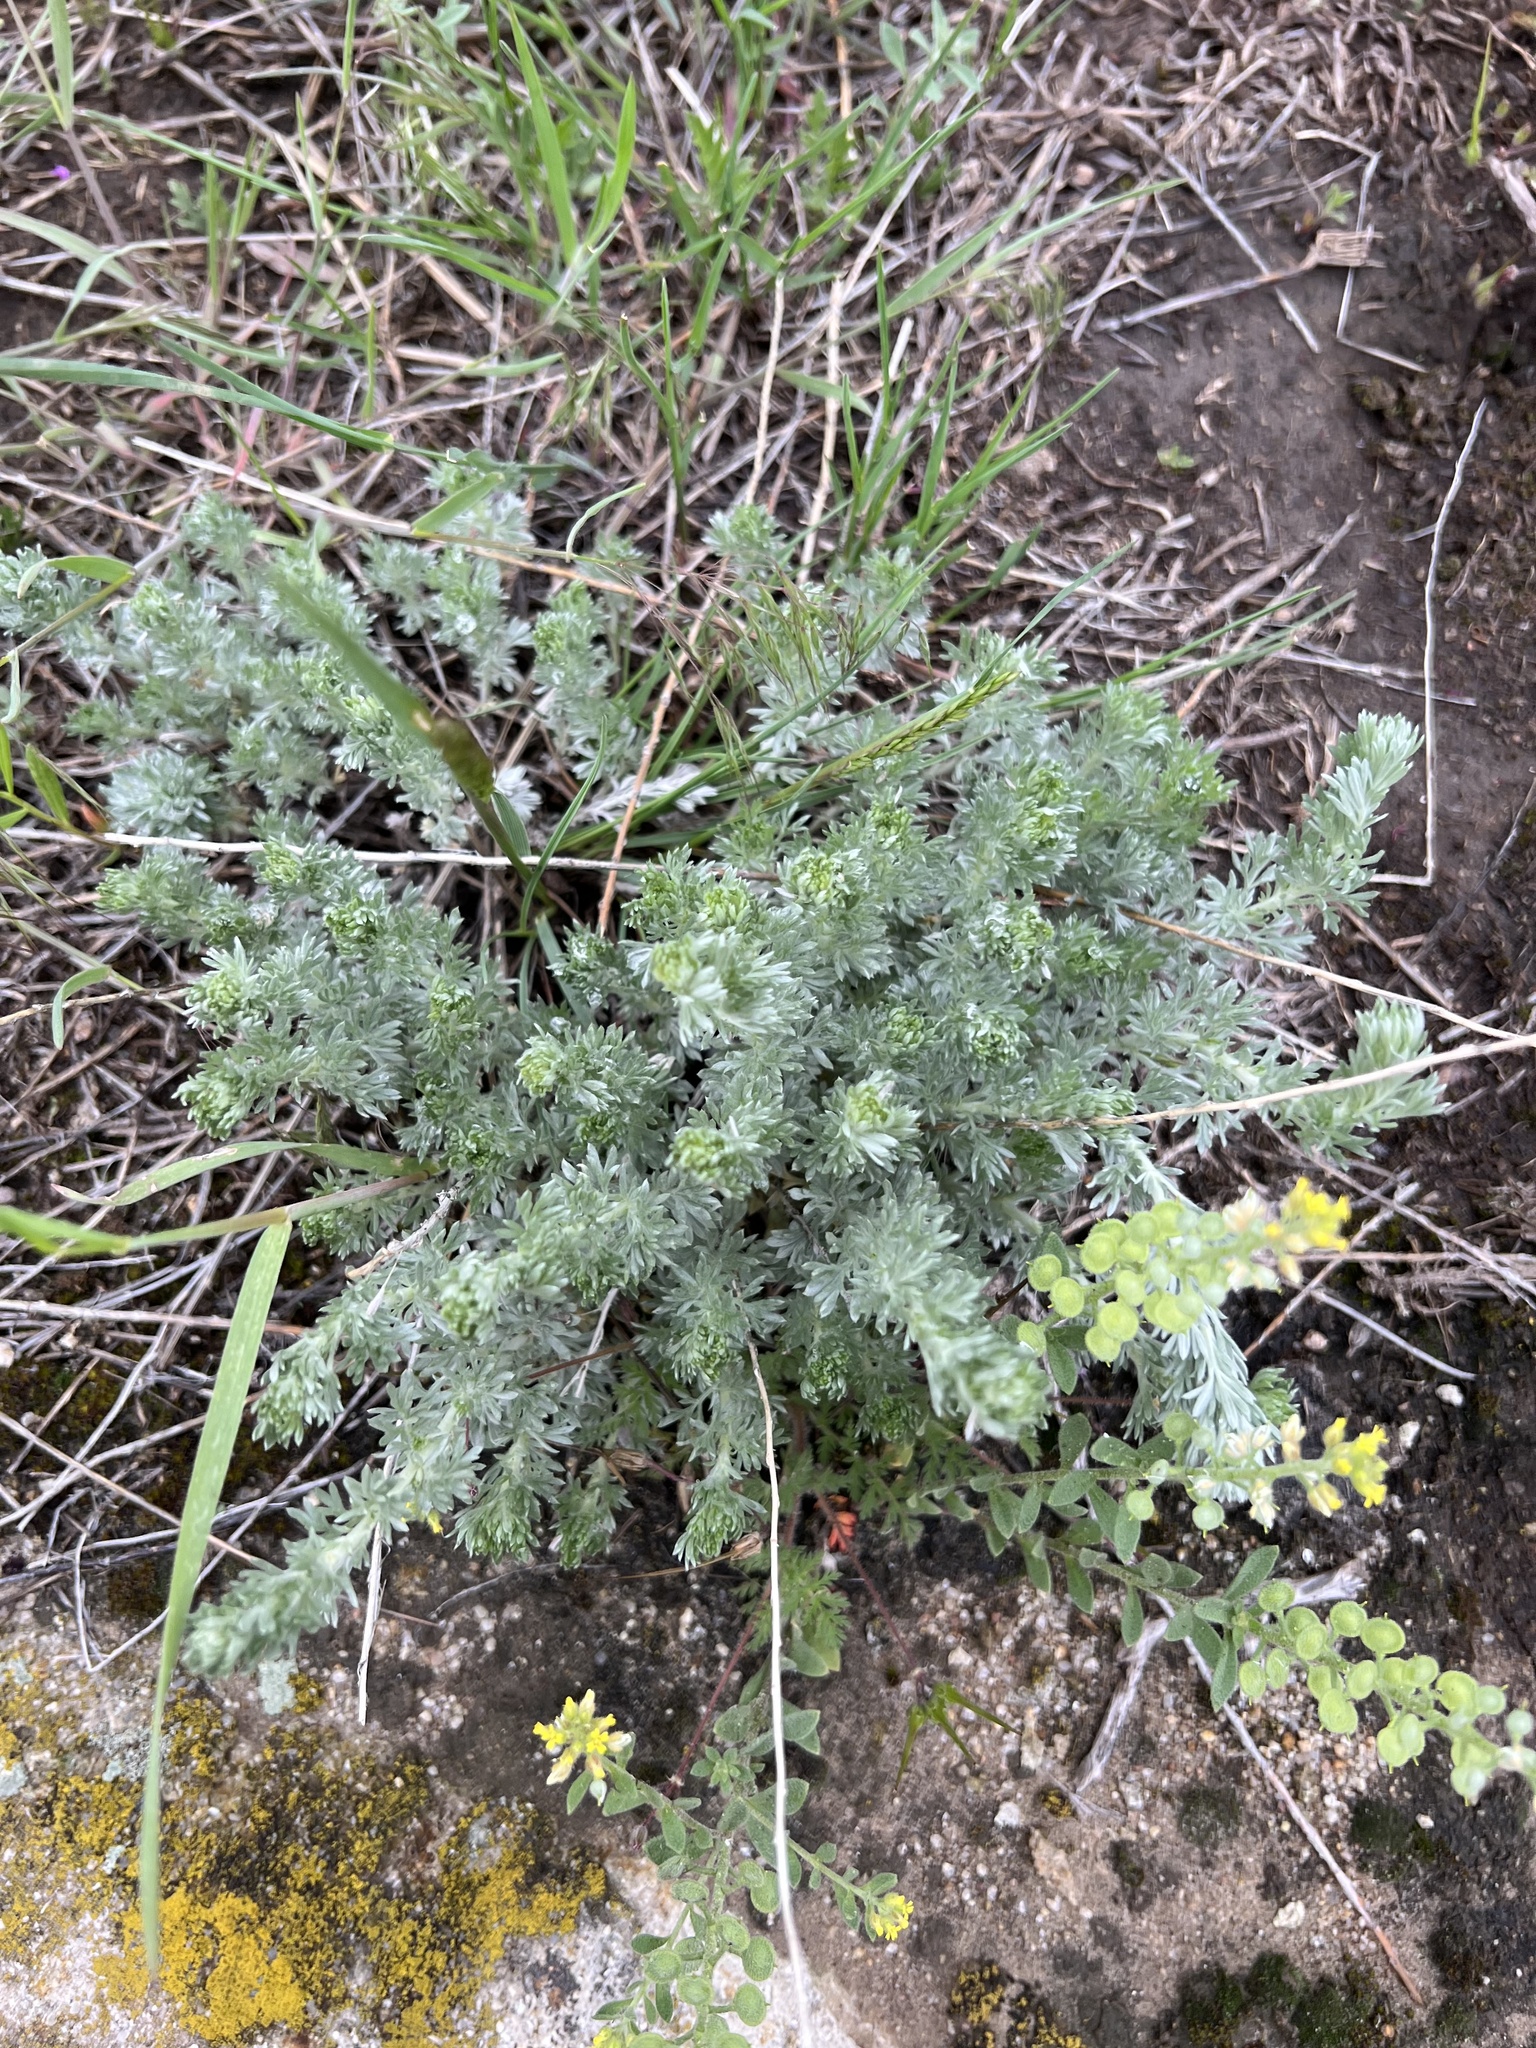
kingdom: Plantae
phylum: Tracheophyta
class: Magnoliopsida
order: Asterales
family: Asteraceae
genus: Artemisia
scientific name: Artemisia frigida
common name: Prairie sagewort
